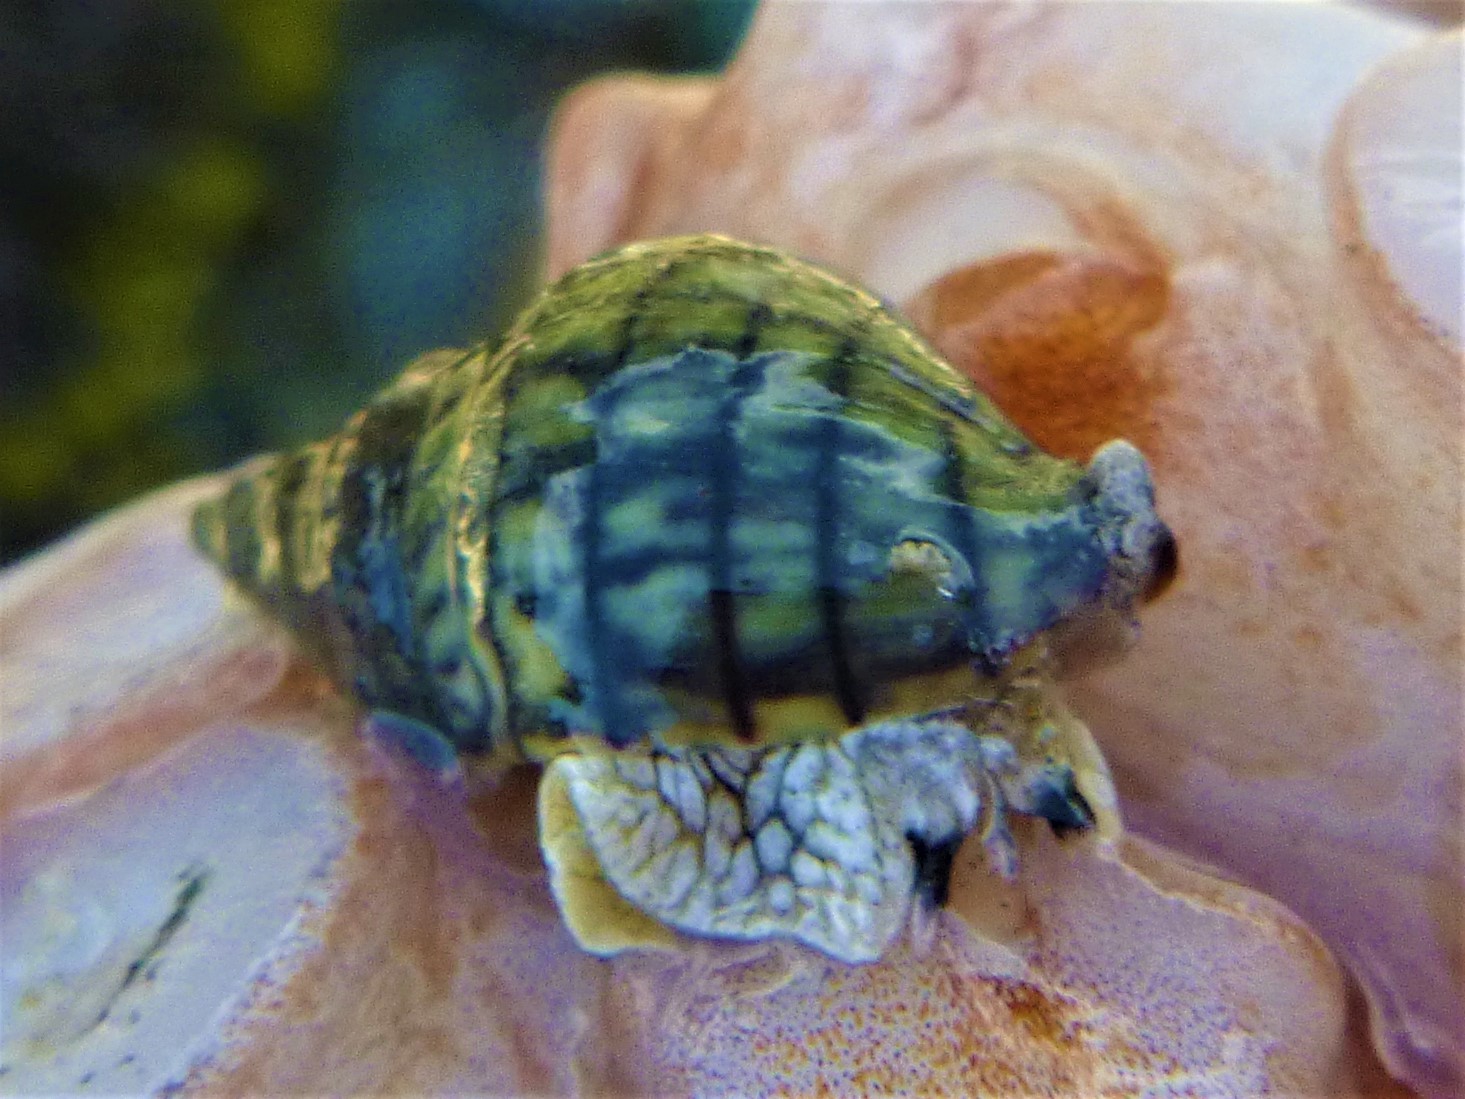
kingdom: Animalia
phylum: Mollusca
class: Gastropoda
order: Neogastropoda
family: Cominellidae
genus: Cominella
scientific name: Cominella virgata
